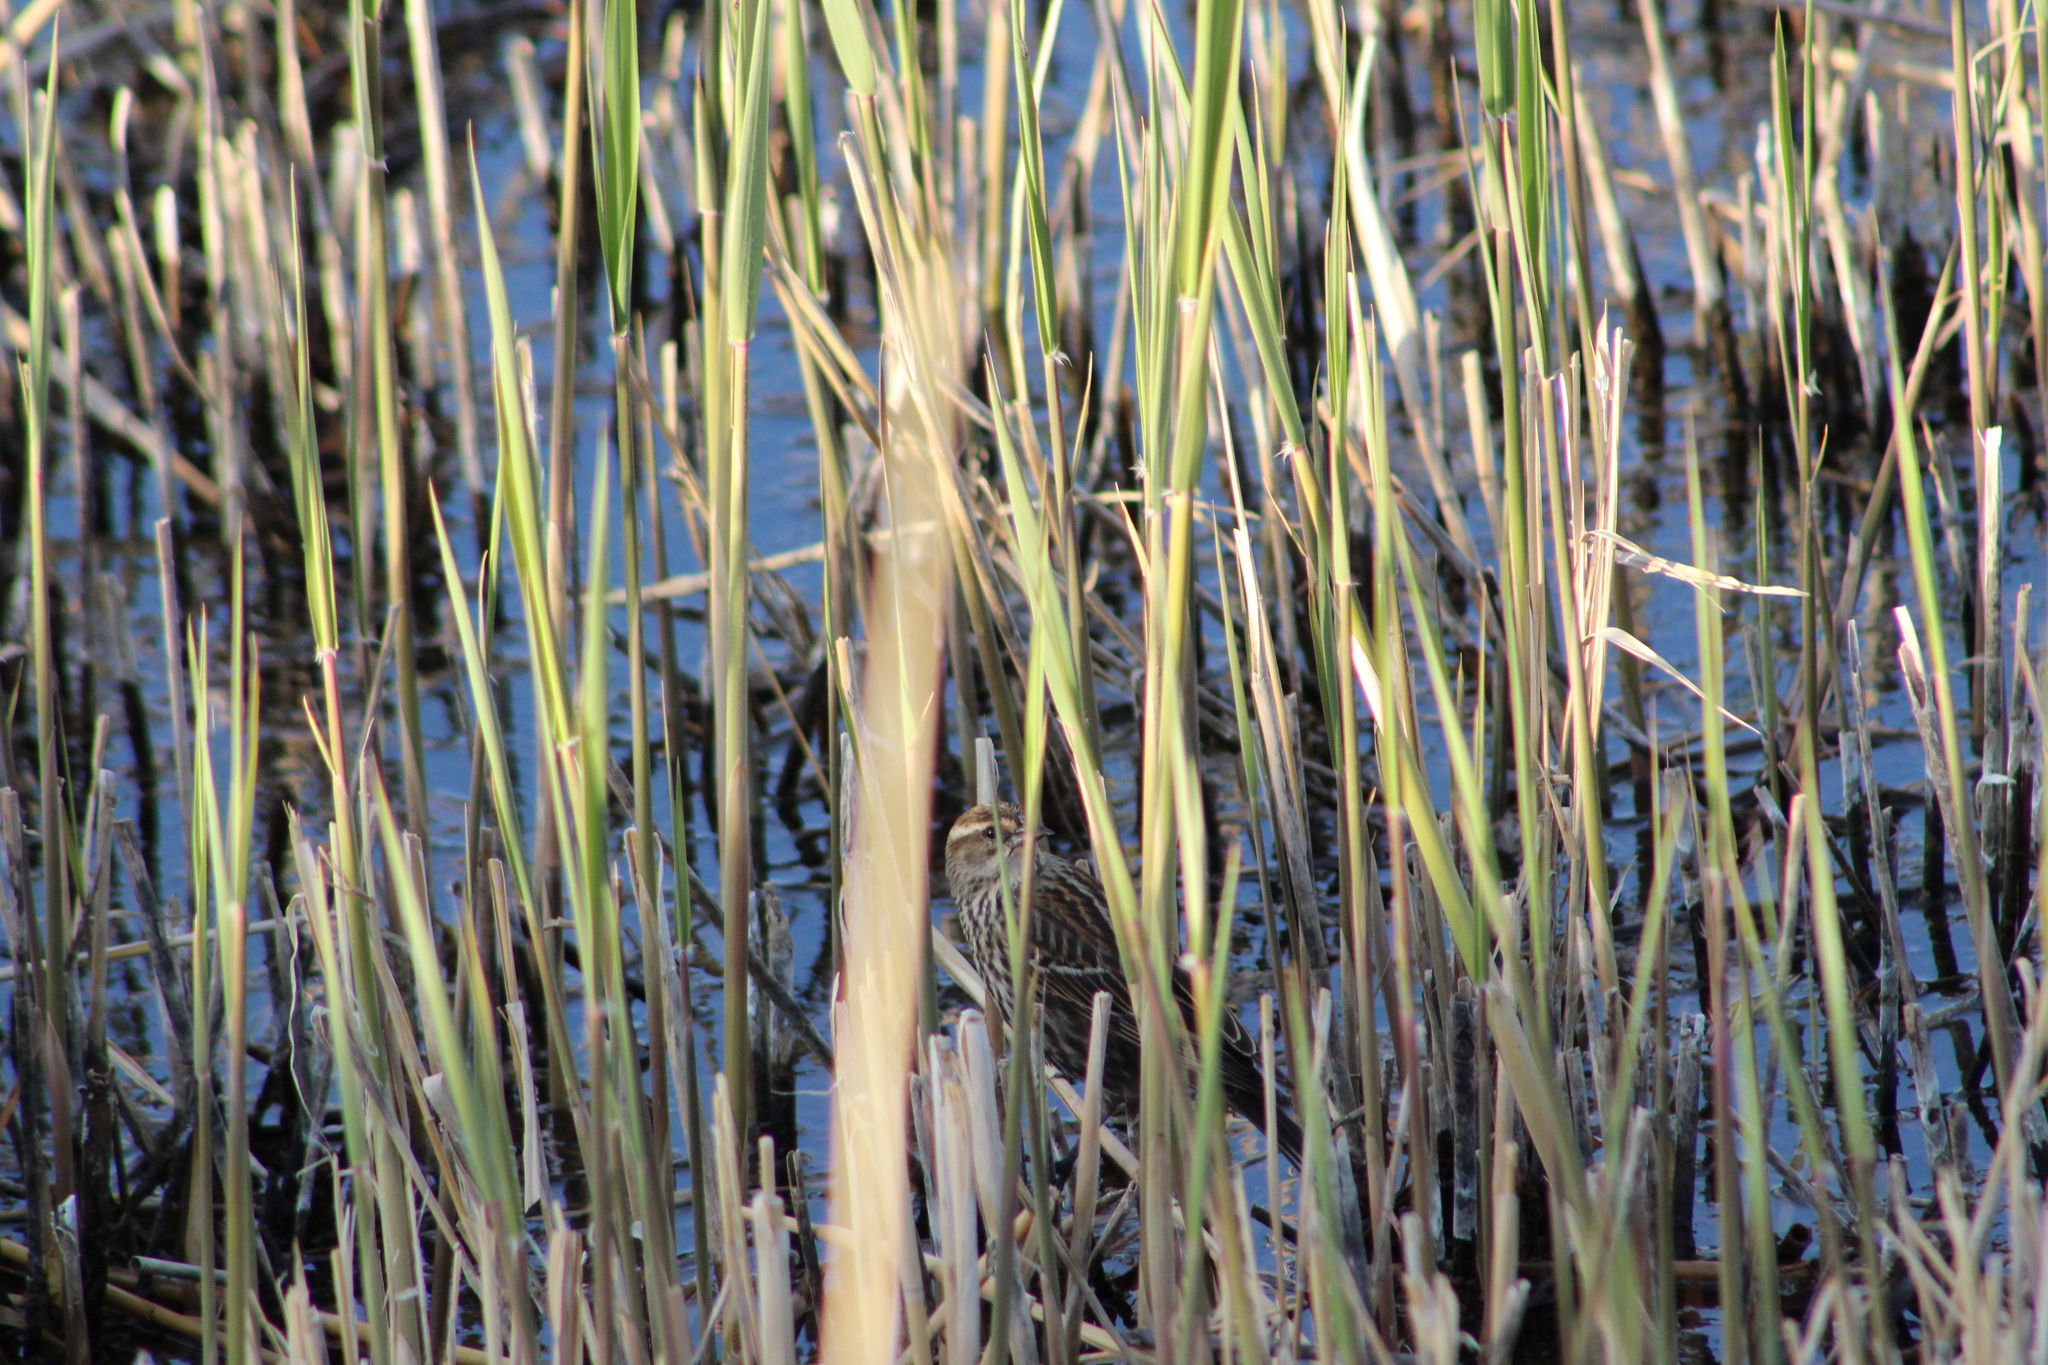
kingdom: Animalia
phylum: Chordata
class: Aves
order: Passeriformes
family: Icteridae
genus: Agelaius
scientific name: Agelaius phoeniceus
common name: Red-winged blackbird
